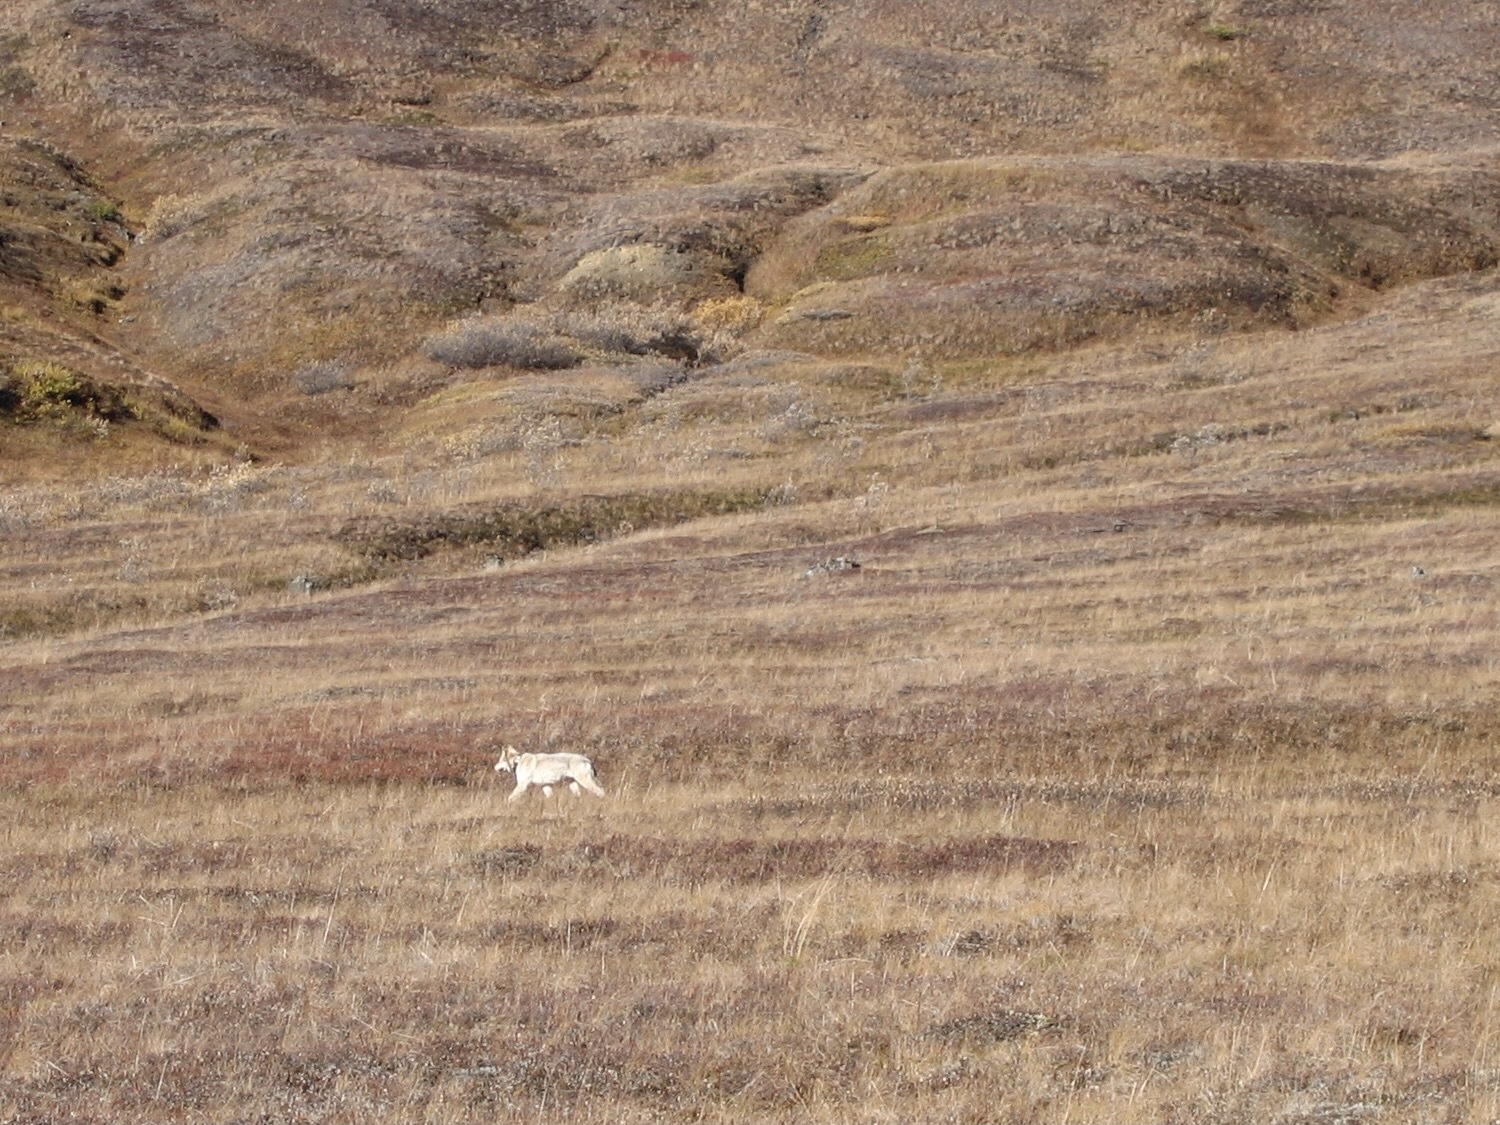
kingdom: Animalia
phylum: Chordata
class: Mammalia
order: Carnivora
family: Canidae
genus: Canis
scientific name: Canis lupus
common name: Gray wolf
